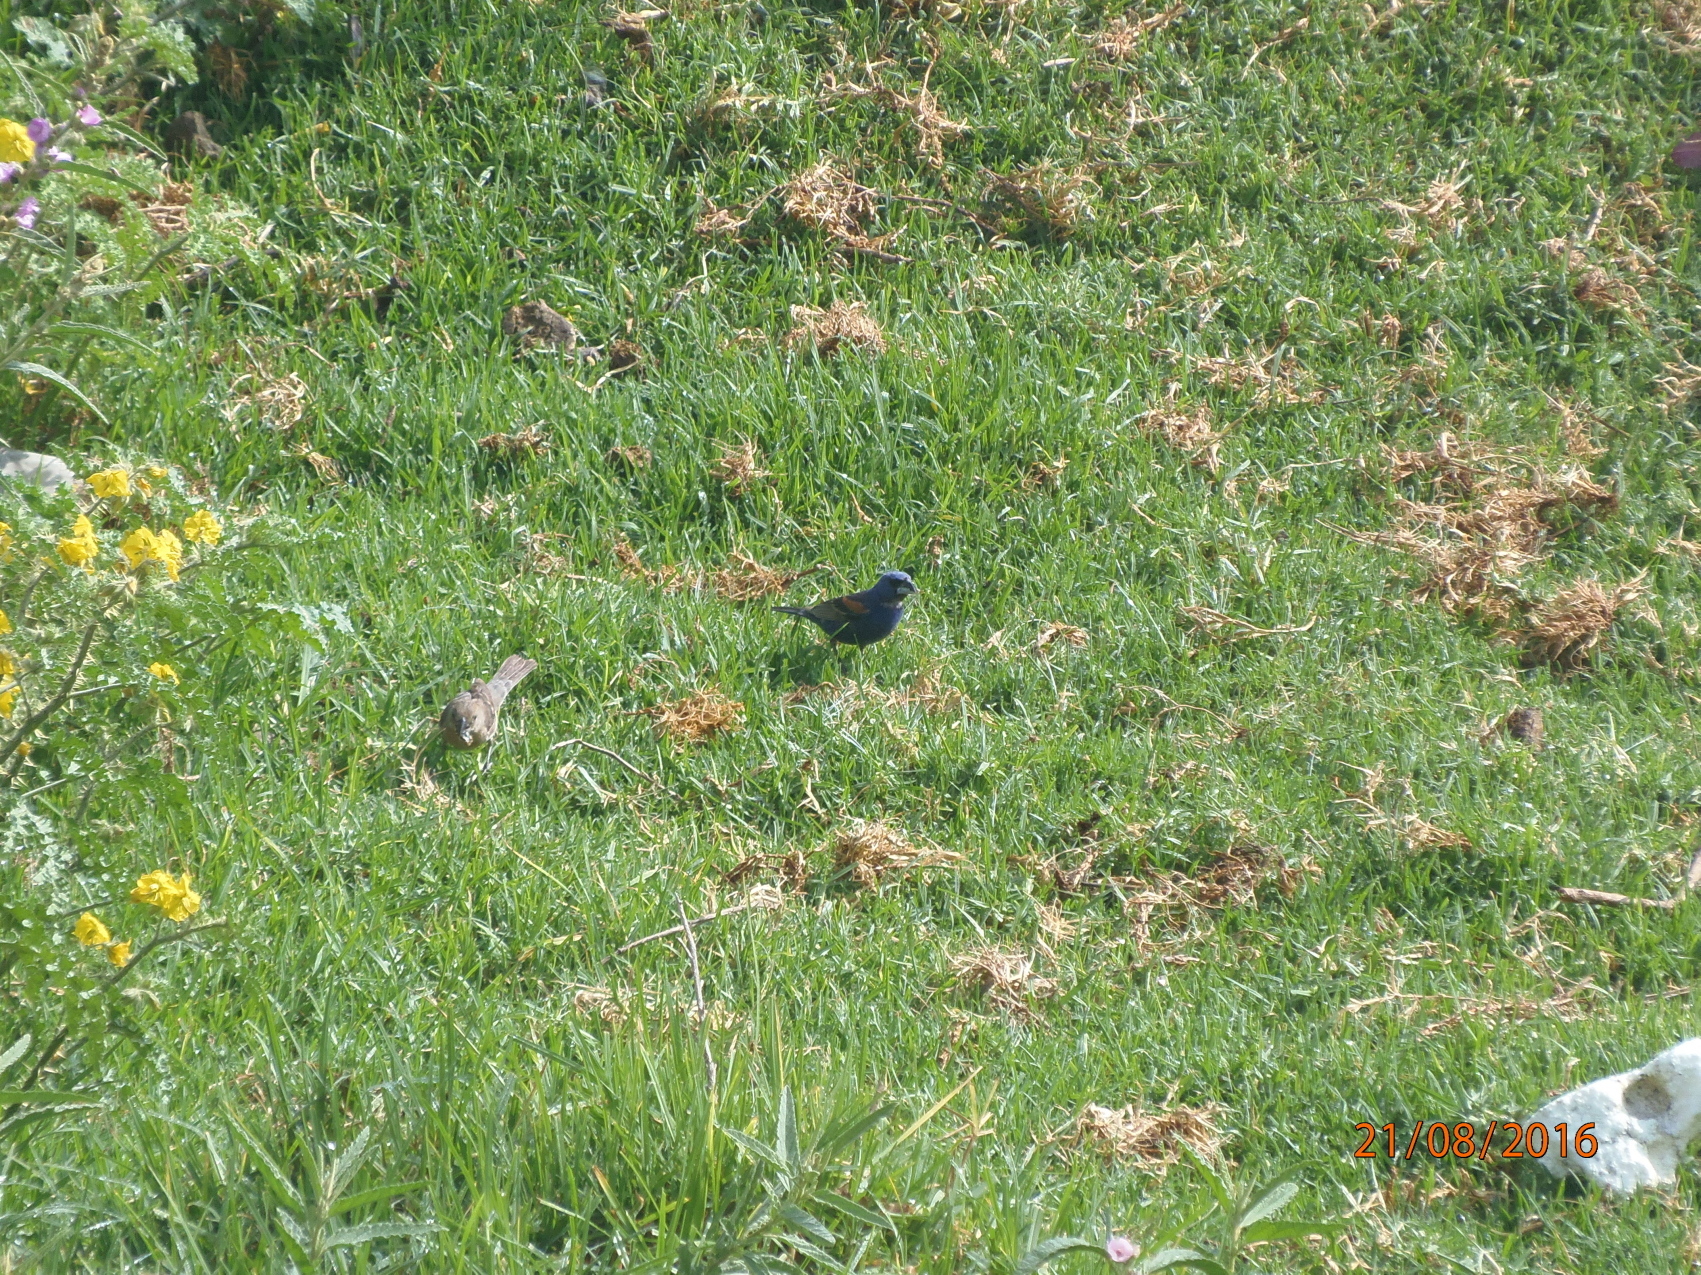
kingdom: Animalia
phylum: Chordata
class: Aves
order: Passeriformes
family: Cardinalidae
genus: Passerina
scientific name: Passerina caerulea
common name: Blue grosbeak
